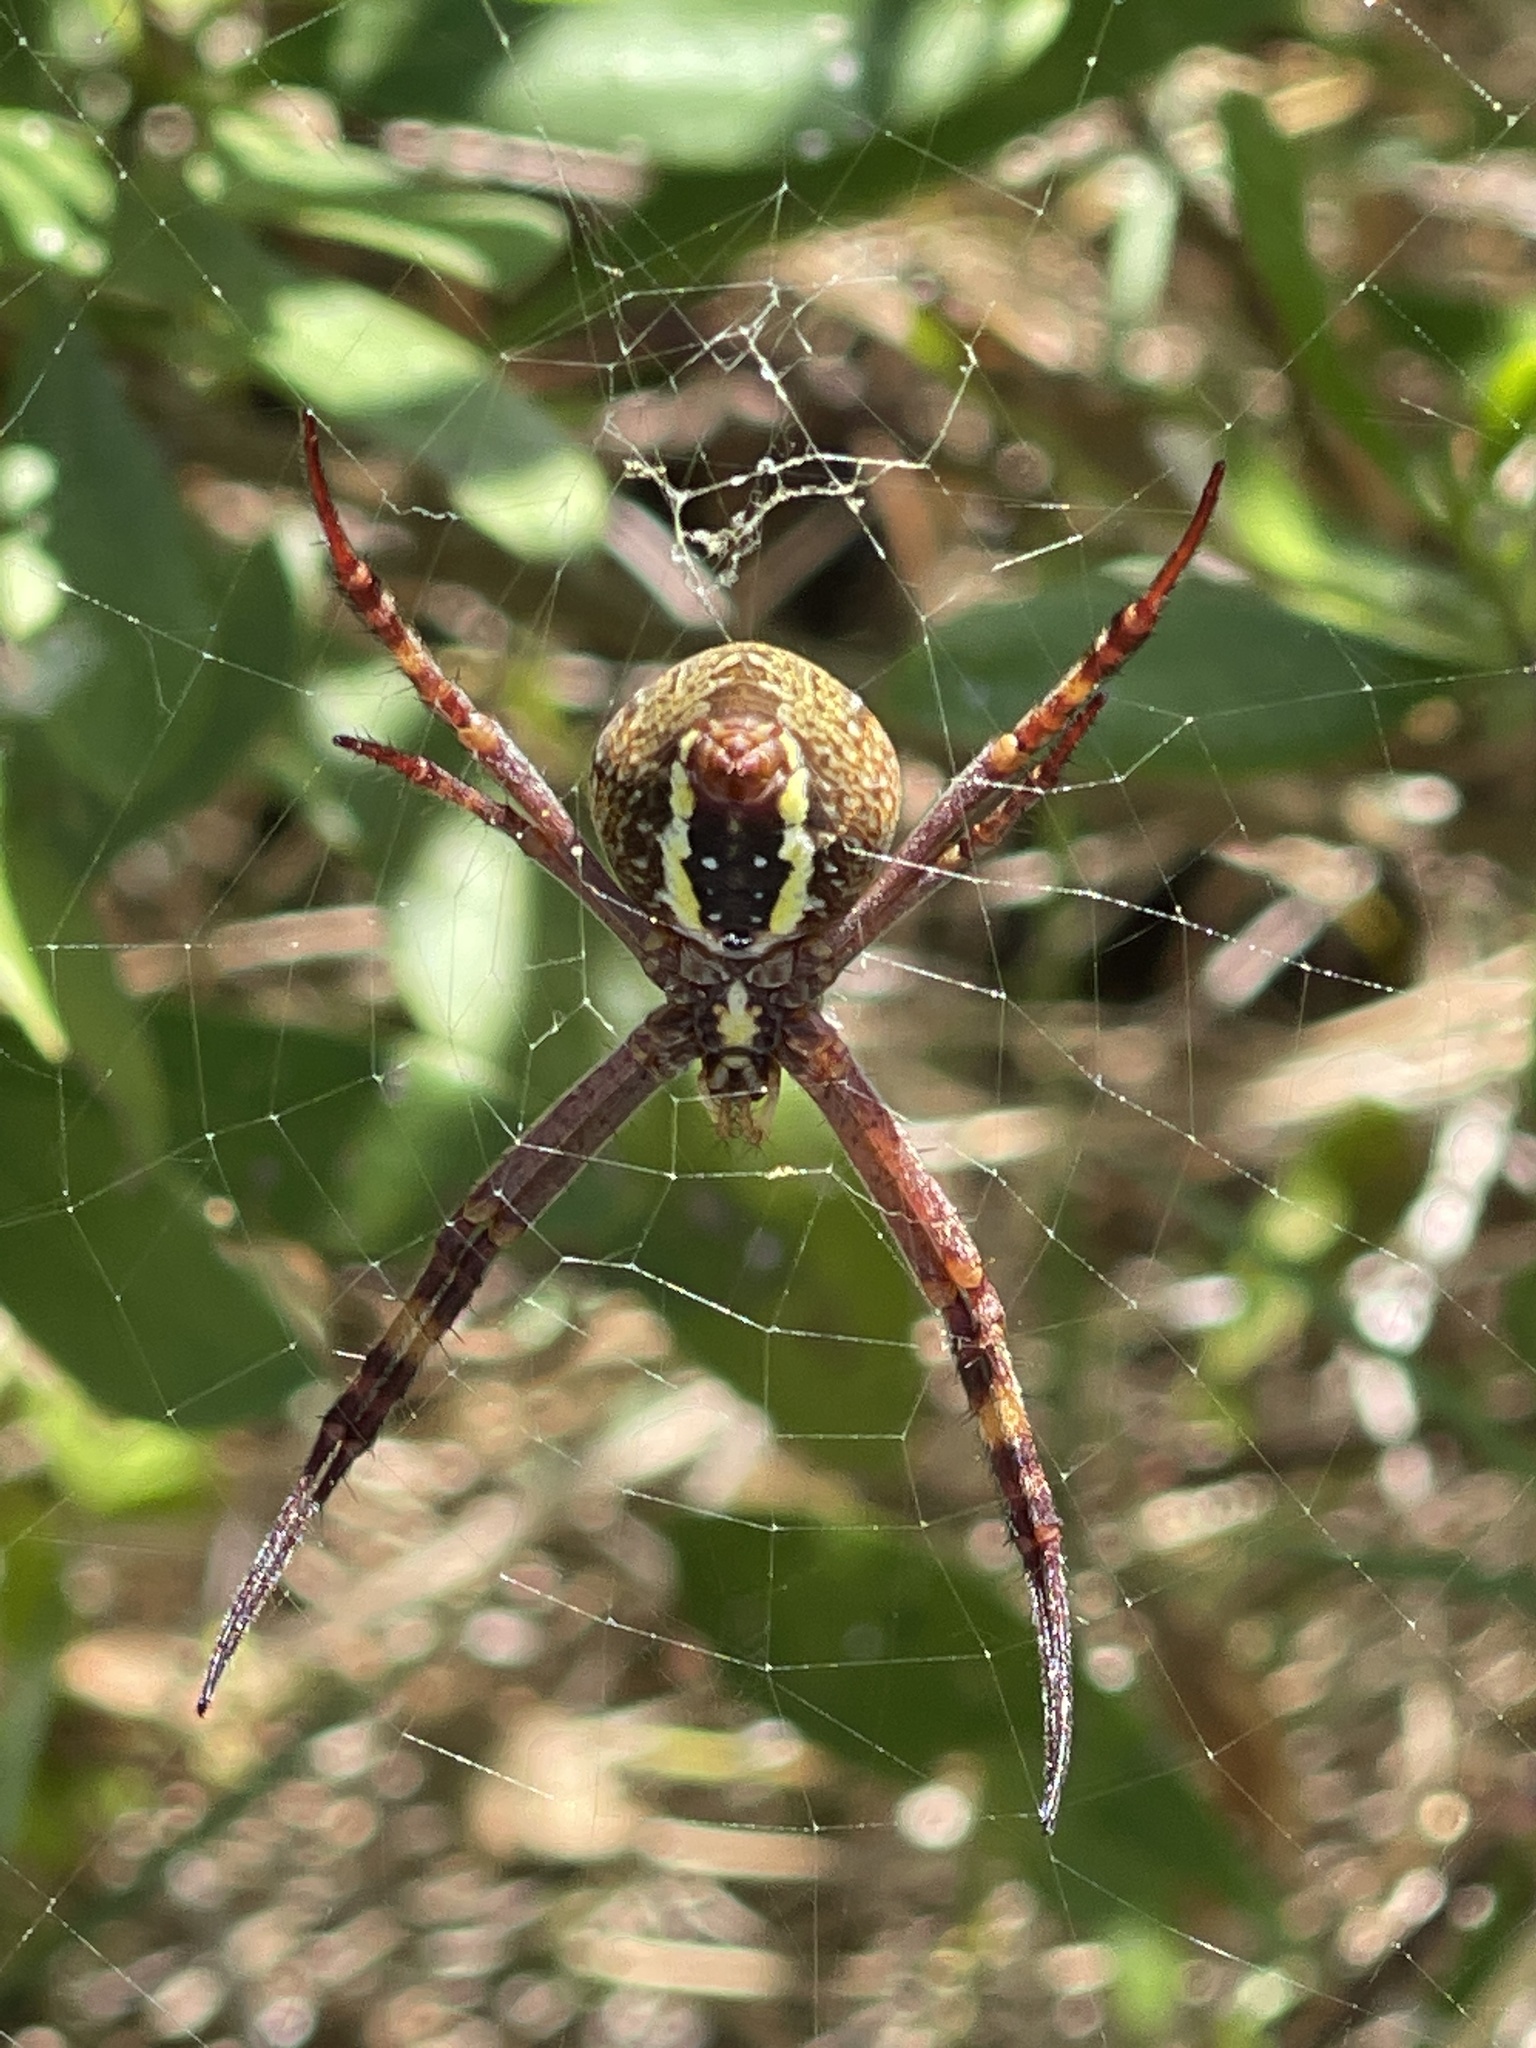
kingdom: Animalia
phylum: Arthropoda
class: Arachnida
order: Araneae
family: Araneidae
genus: Argiope
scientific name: Argiope keyserlingi
